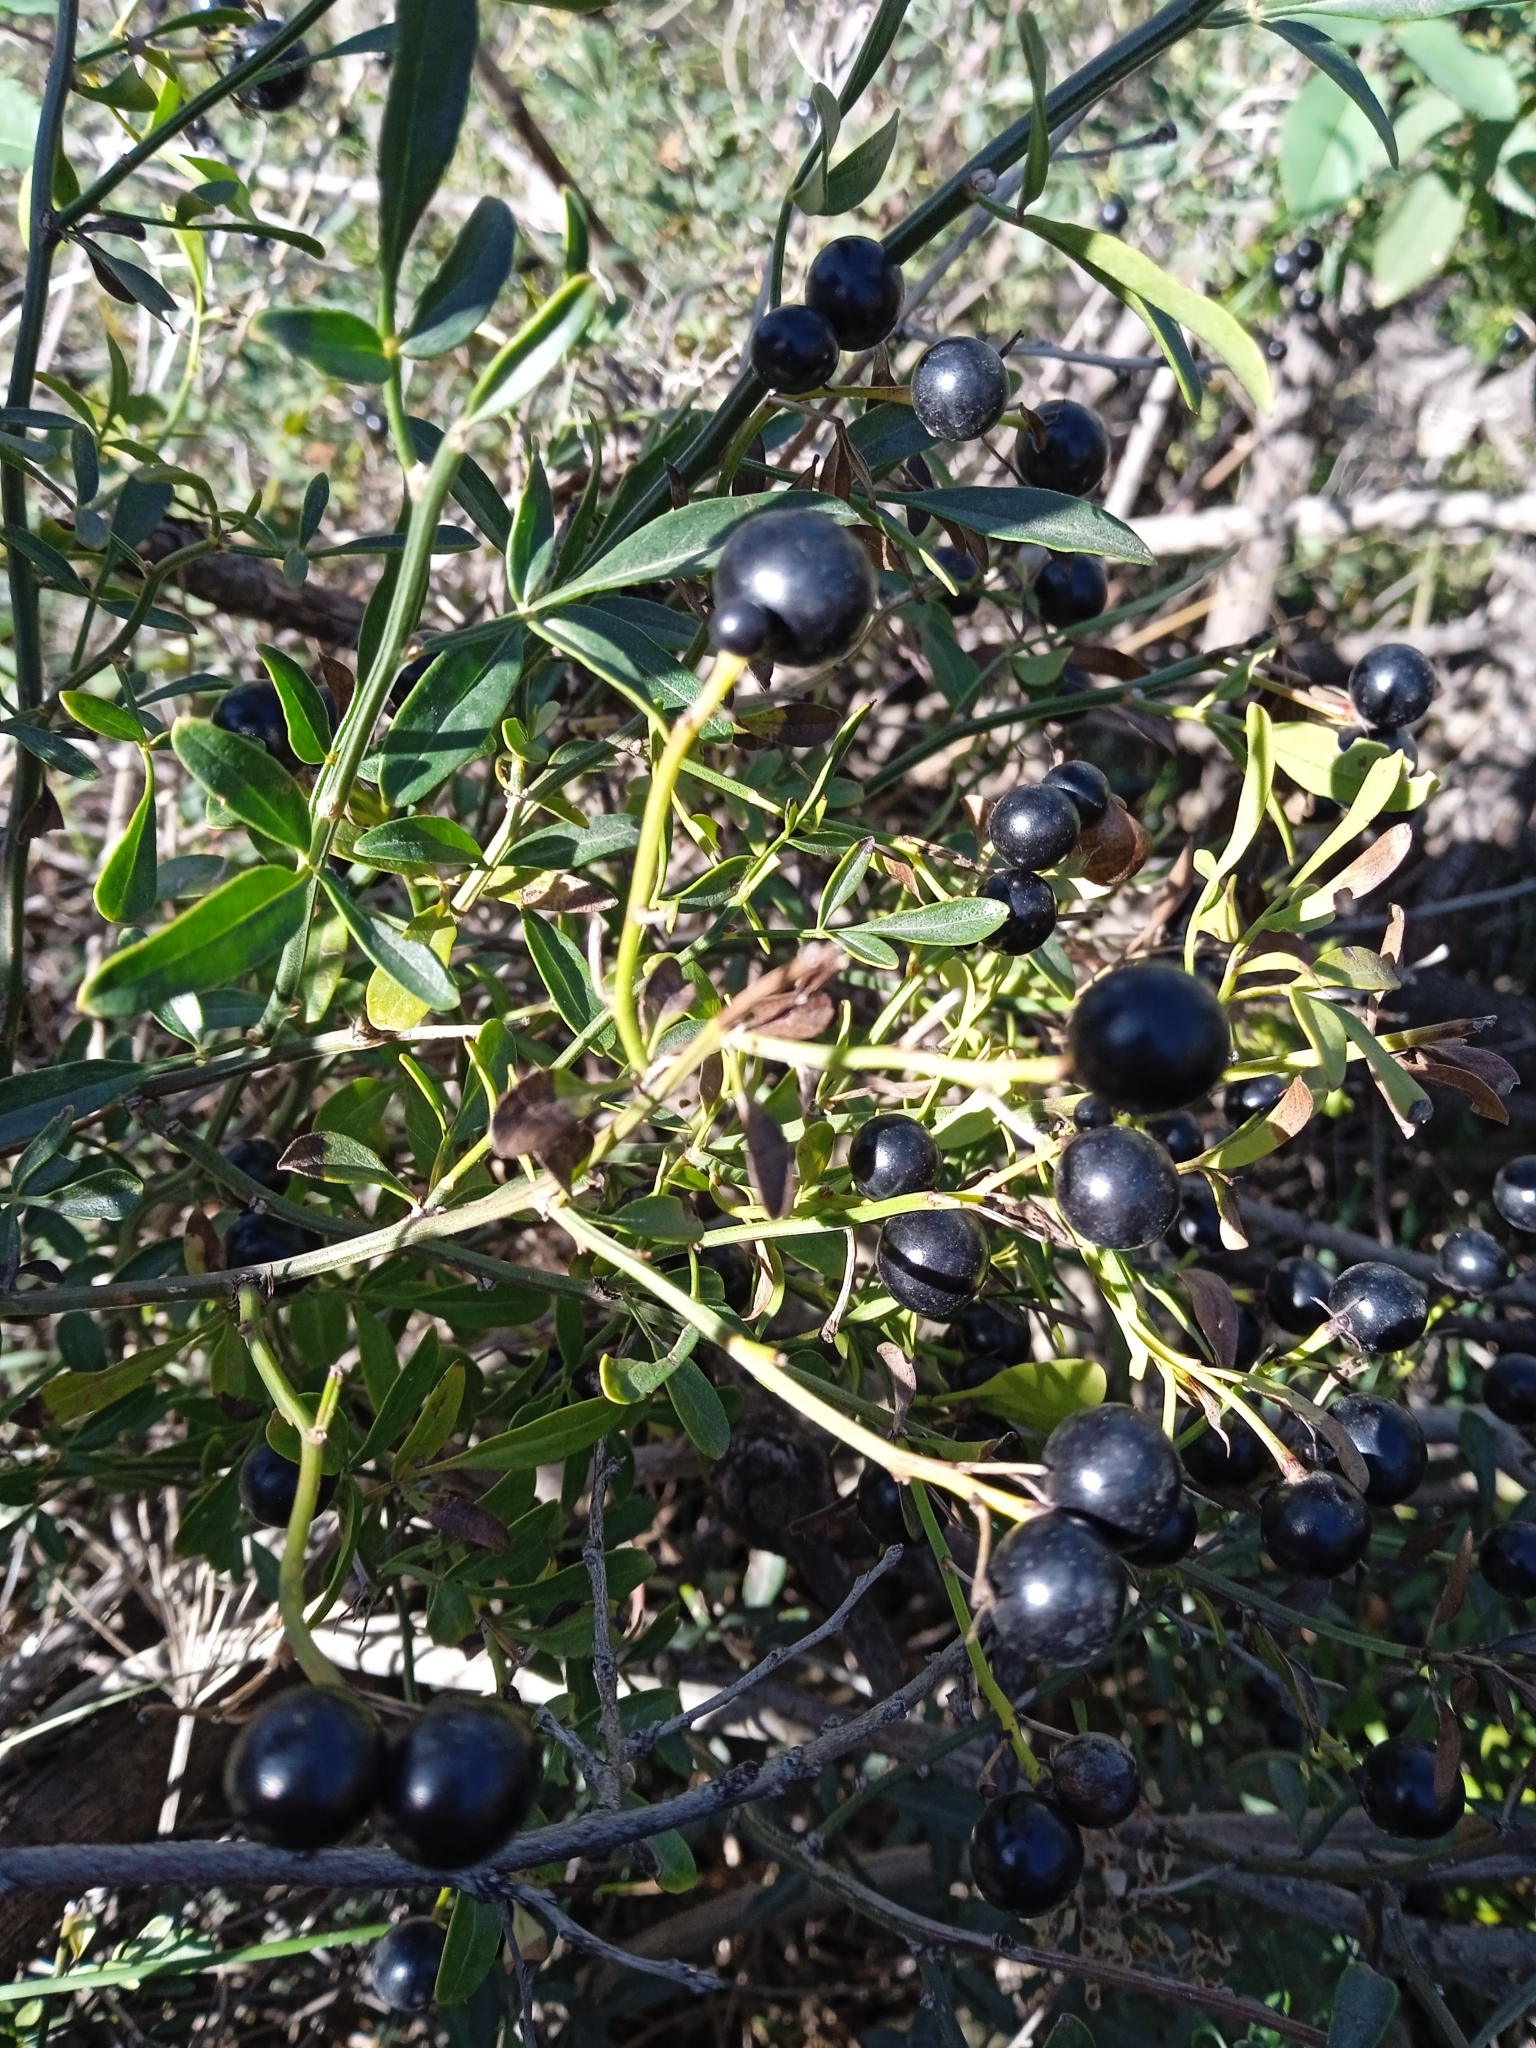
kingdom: Plantae
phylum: Tracheophyta
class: Magnoliopsida
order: Lamiales
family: Oleaceae
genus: Chrysojasminum
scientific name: Chrysojasminum fruticans
